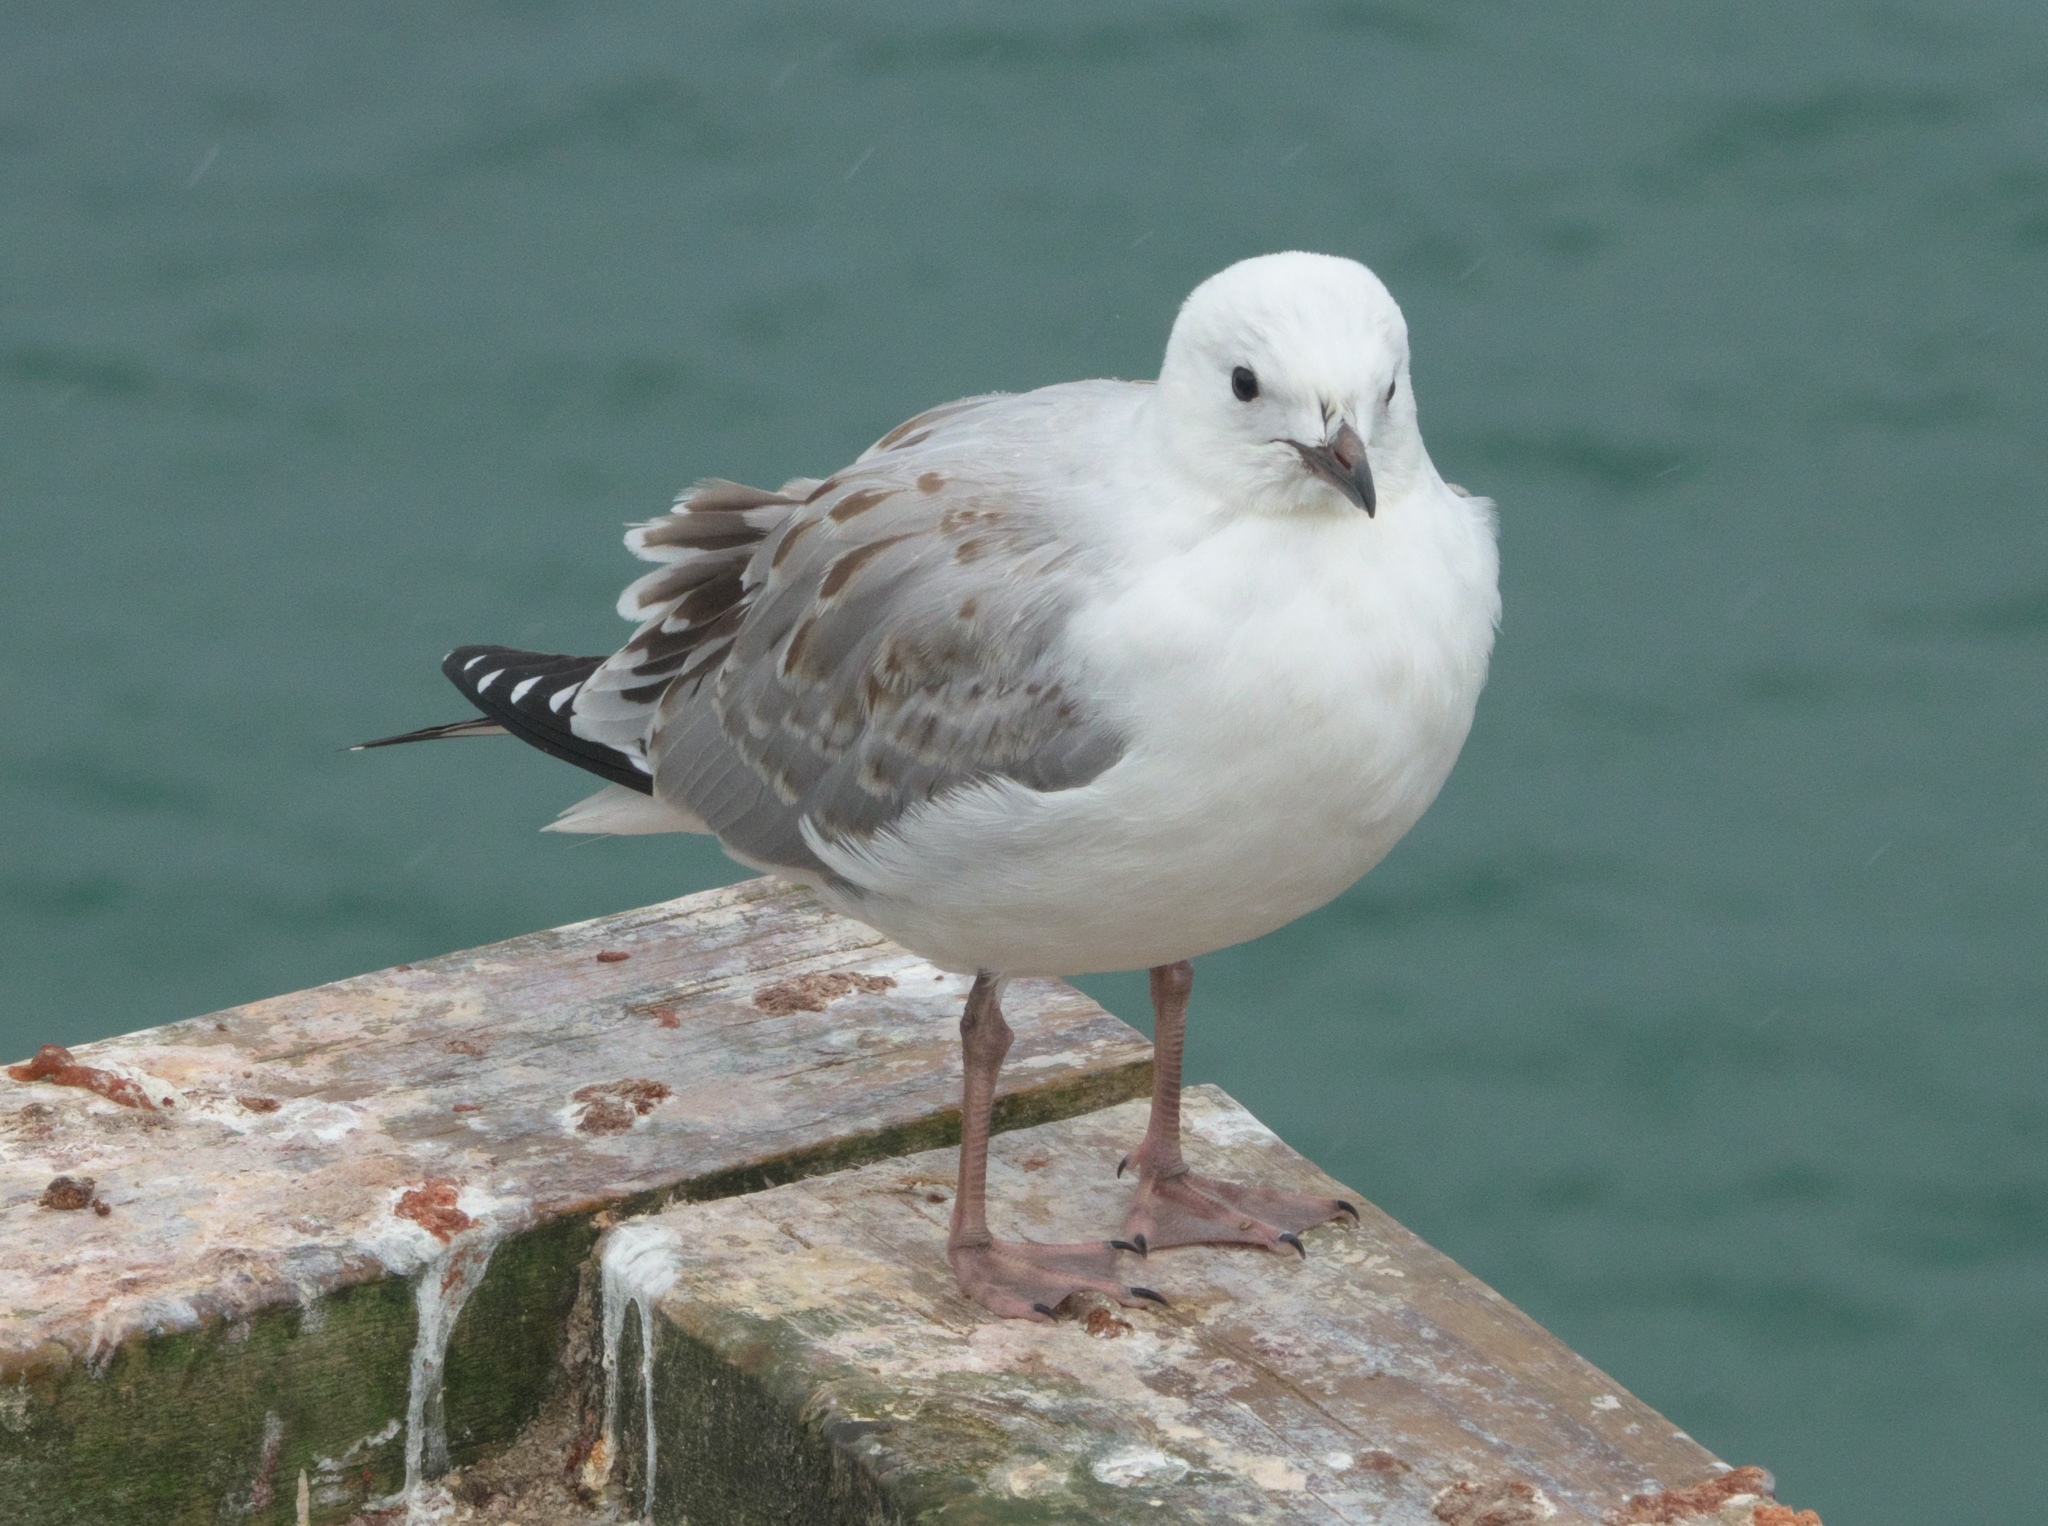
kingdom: Animalia
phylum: Chordata
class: Aves
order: Charadriiformes
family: Laridae
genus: Chroicocephalus
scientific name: Chroicocephalus novaehollandiae
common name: Silver gull
